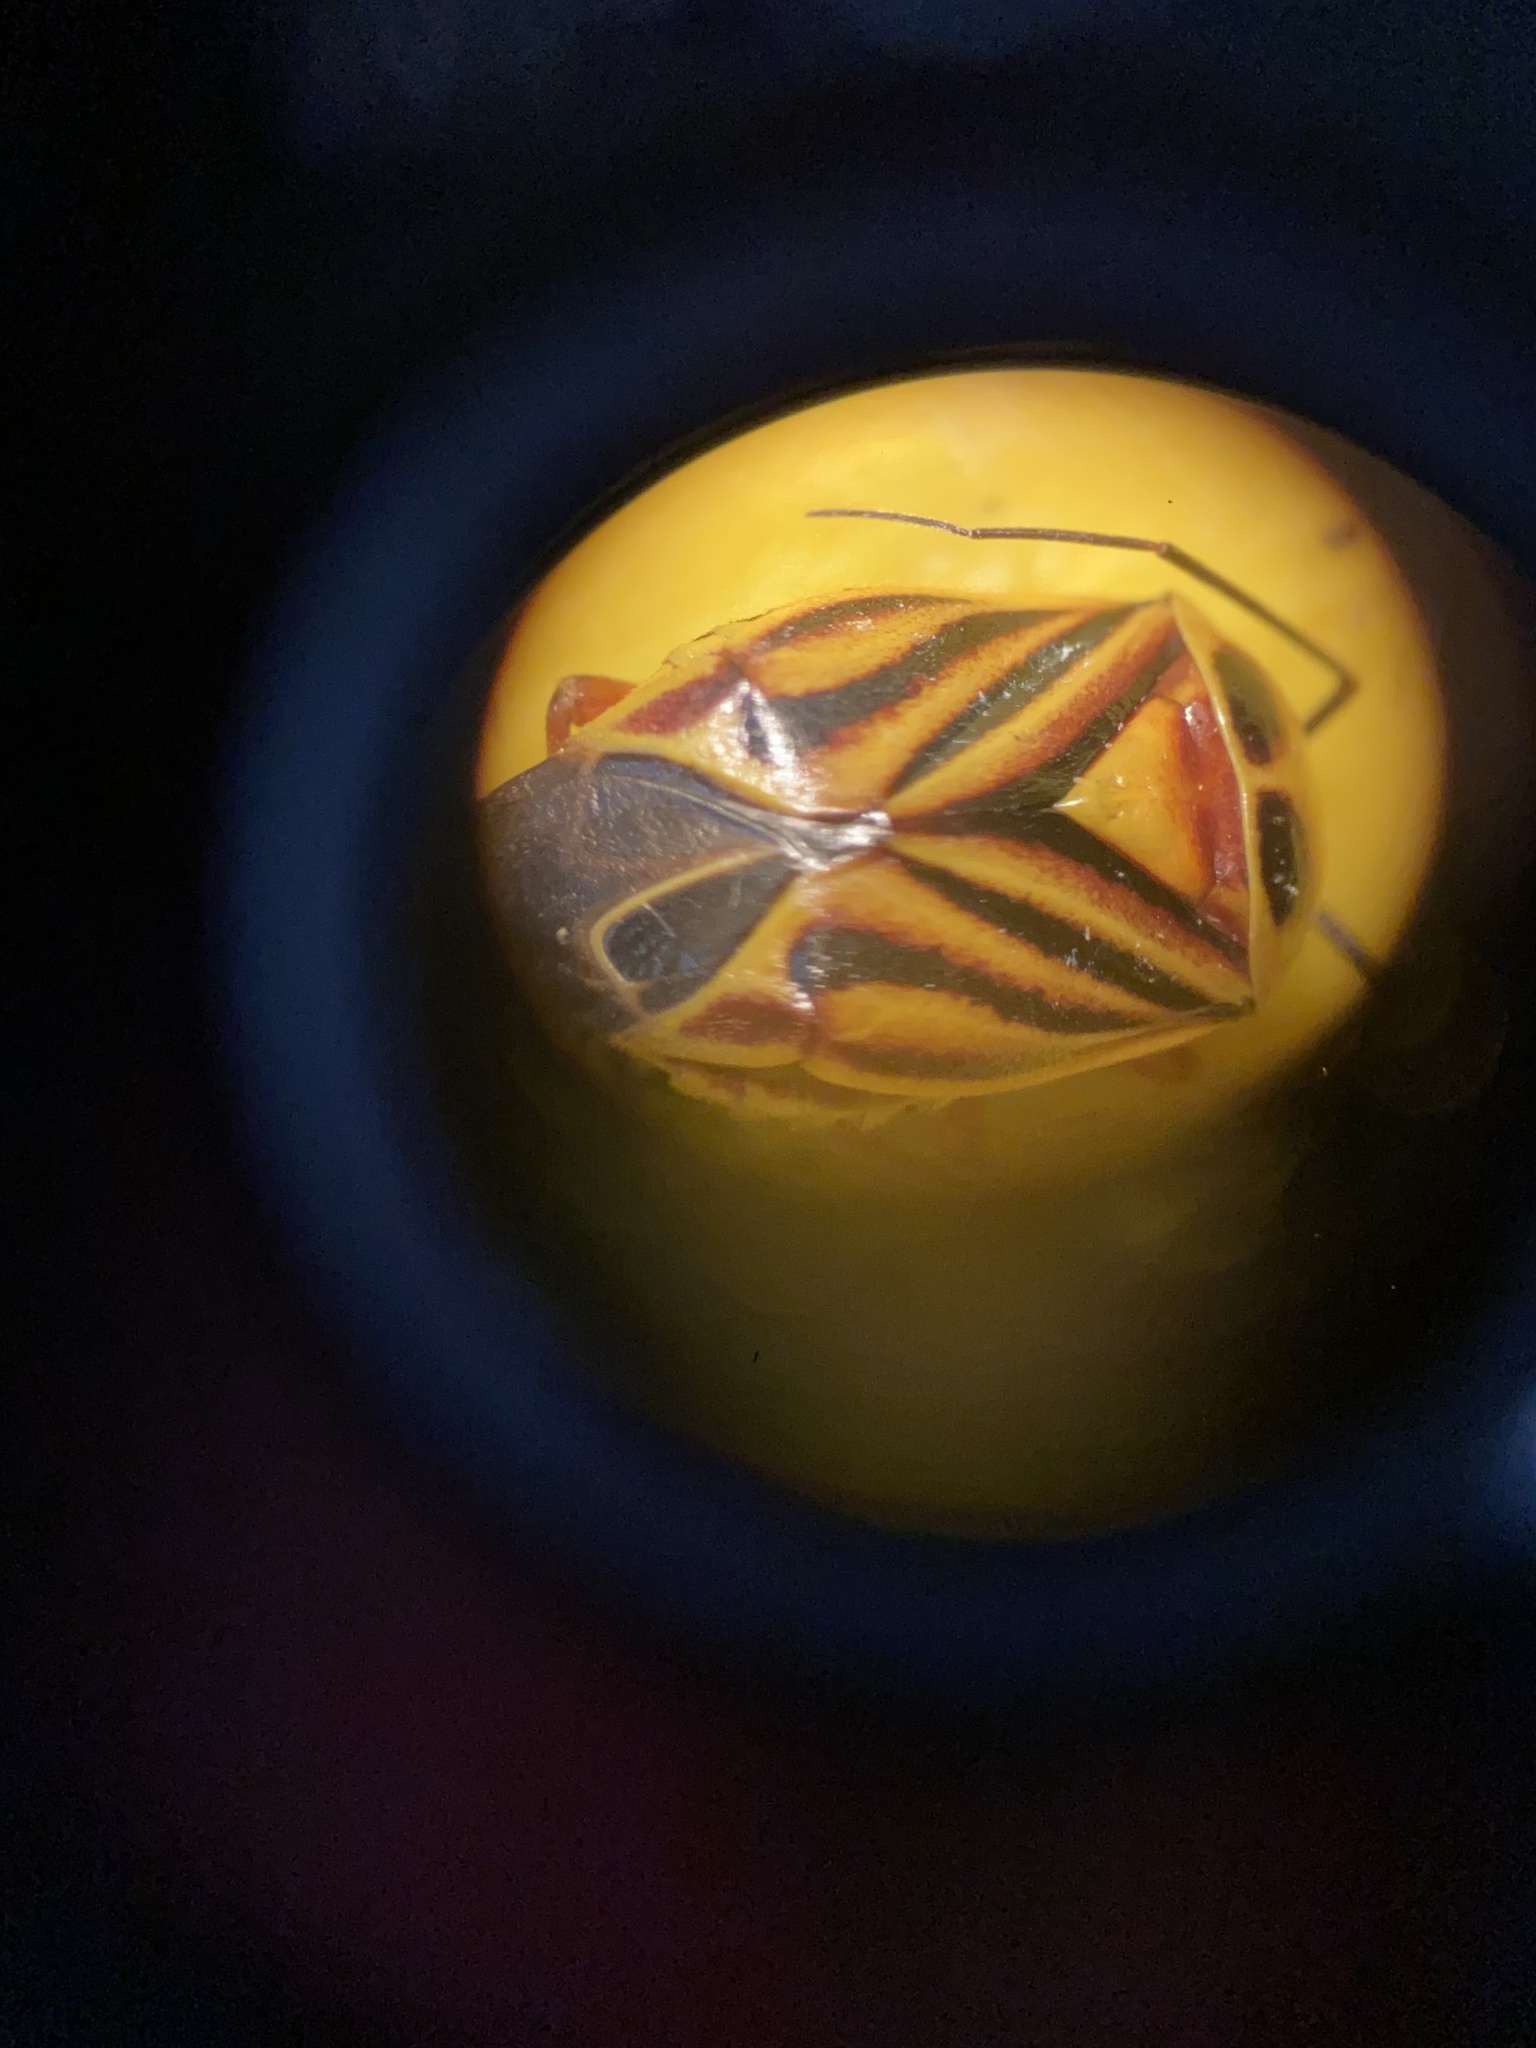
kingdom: Animalia
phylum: Arthropoda
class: Insecta
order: Hemiptera
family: Miridae
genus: Calocoris
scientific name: Calocoris barberi
